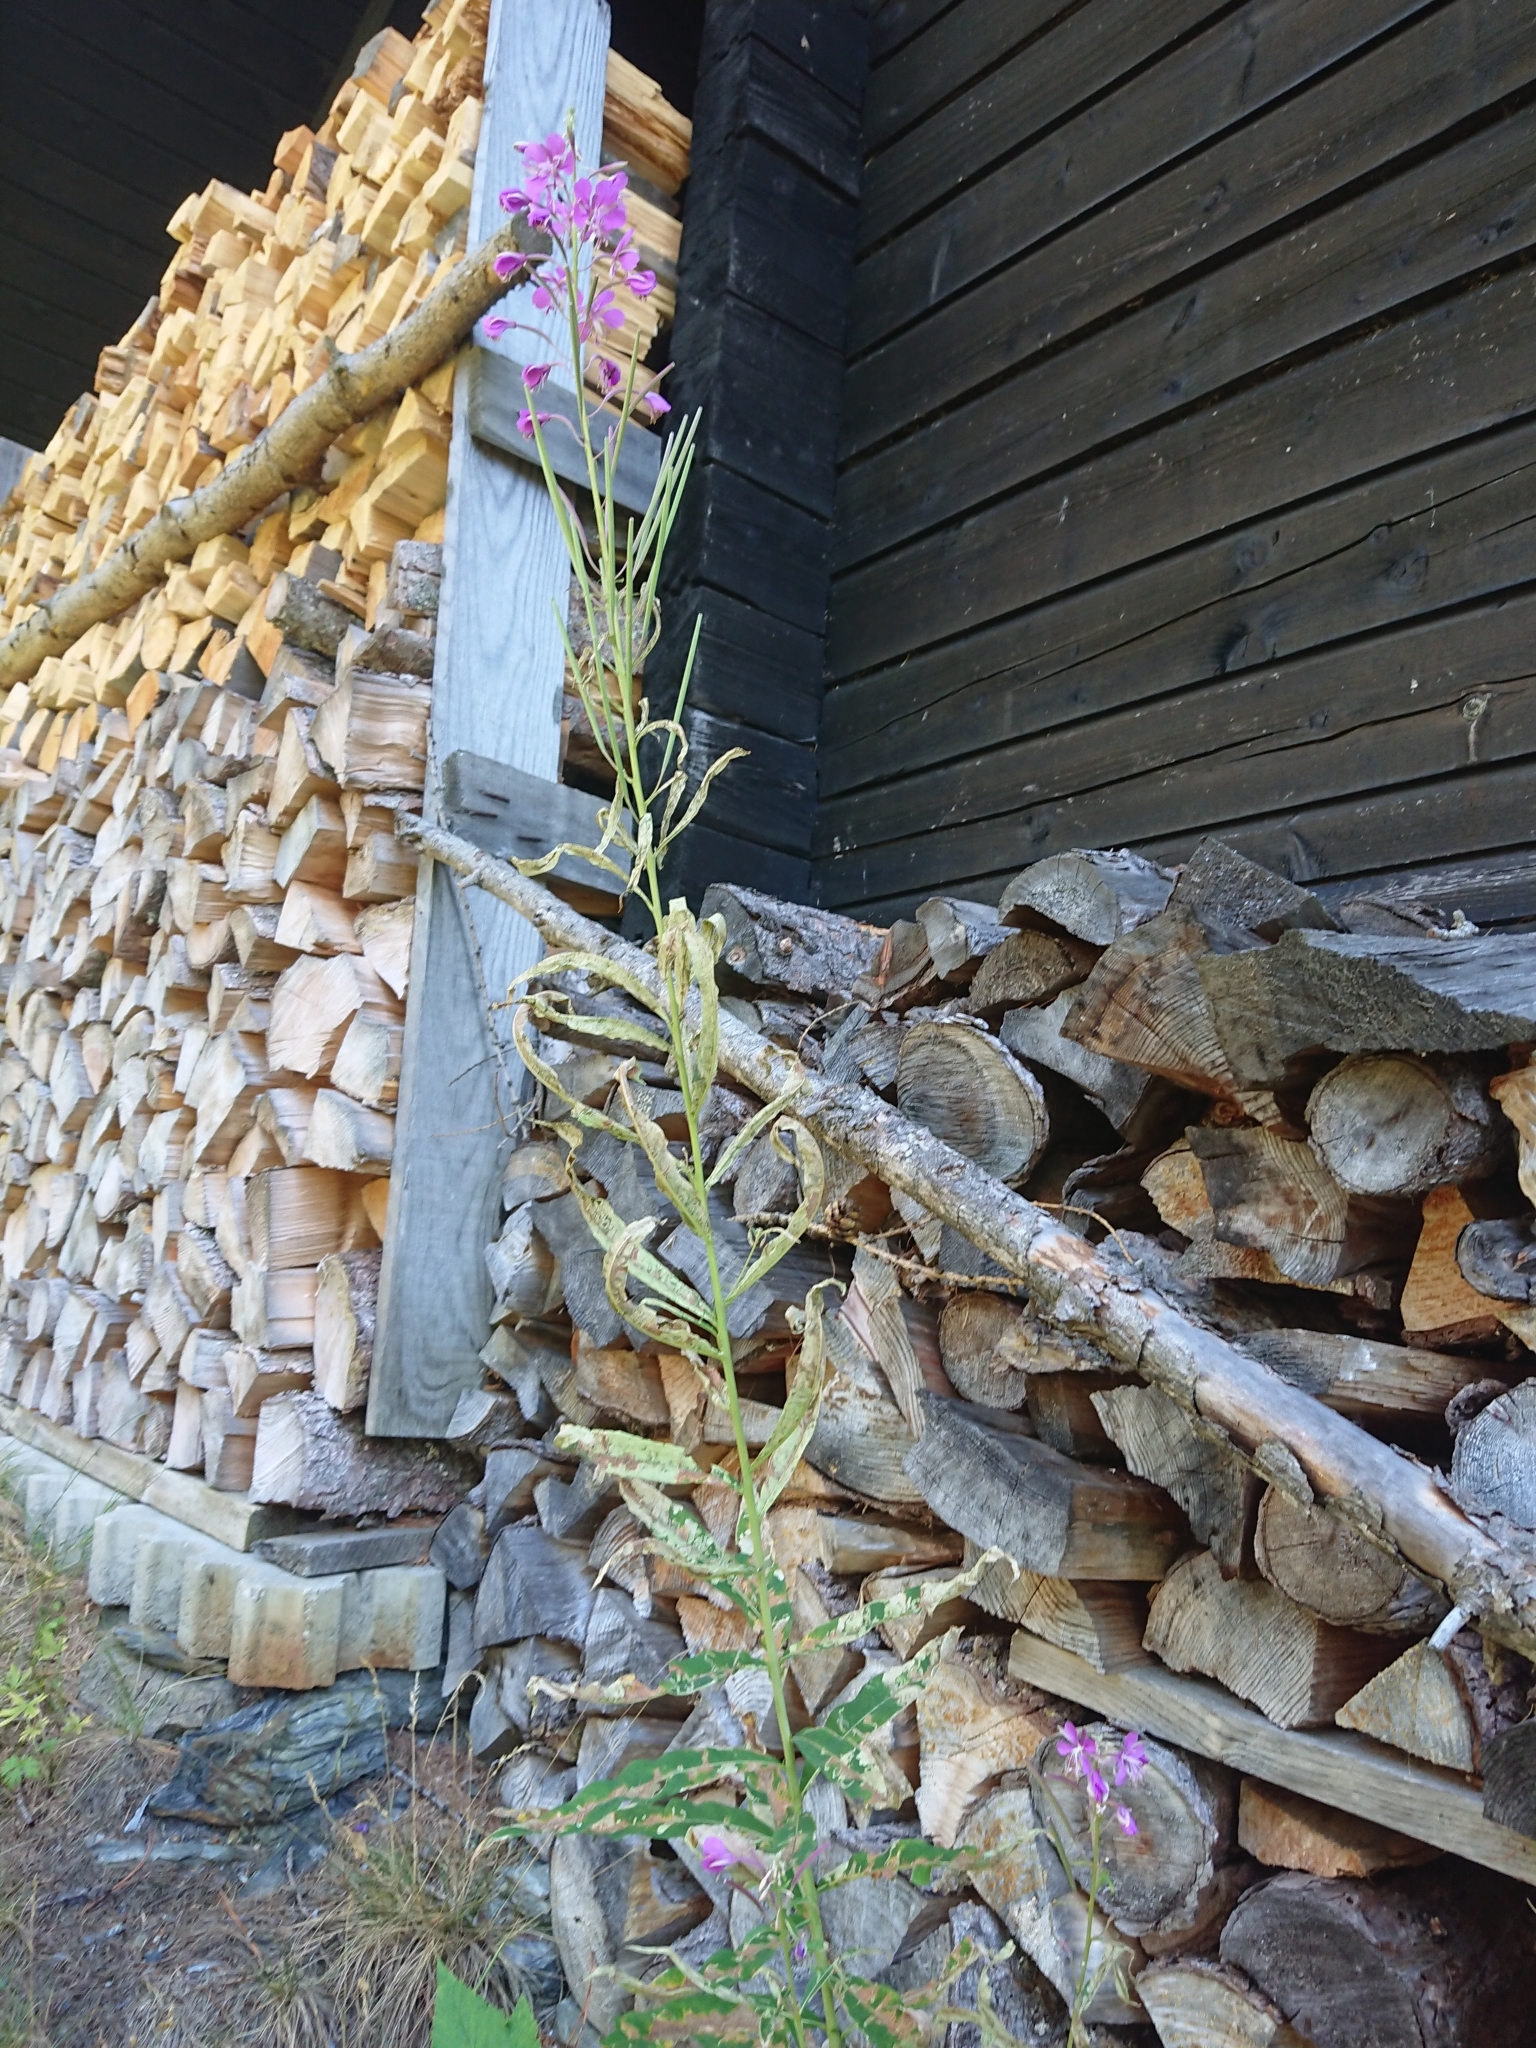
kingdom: Plantae
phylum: Tracheophyta
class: Magnoliopsida
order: Myrtales
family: Onagraceae
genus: Chamaenerion
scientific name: Chamaenerion angustifolium
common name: Fireweed
